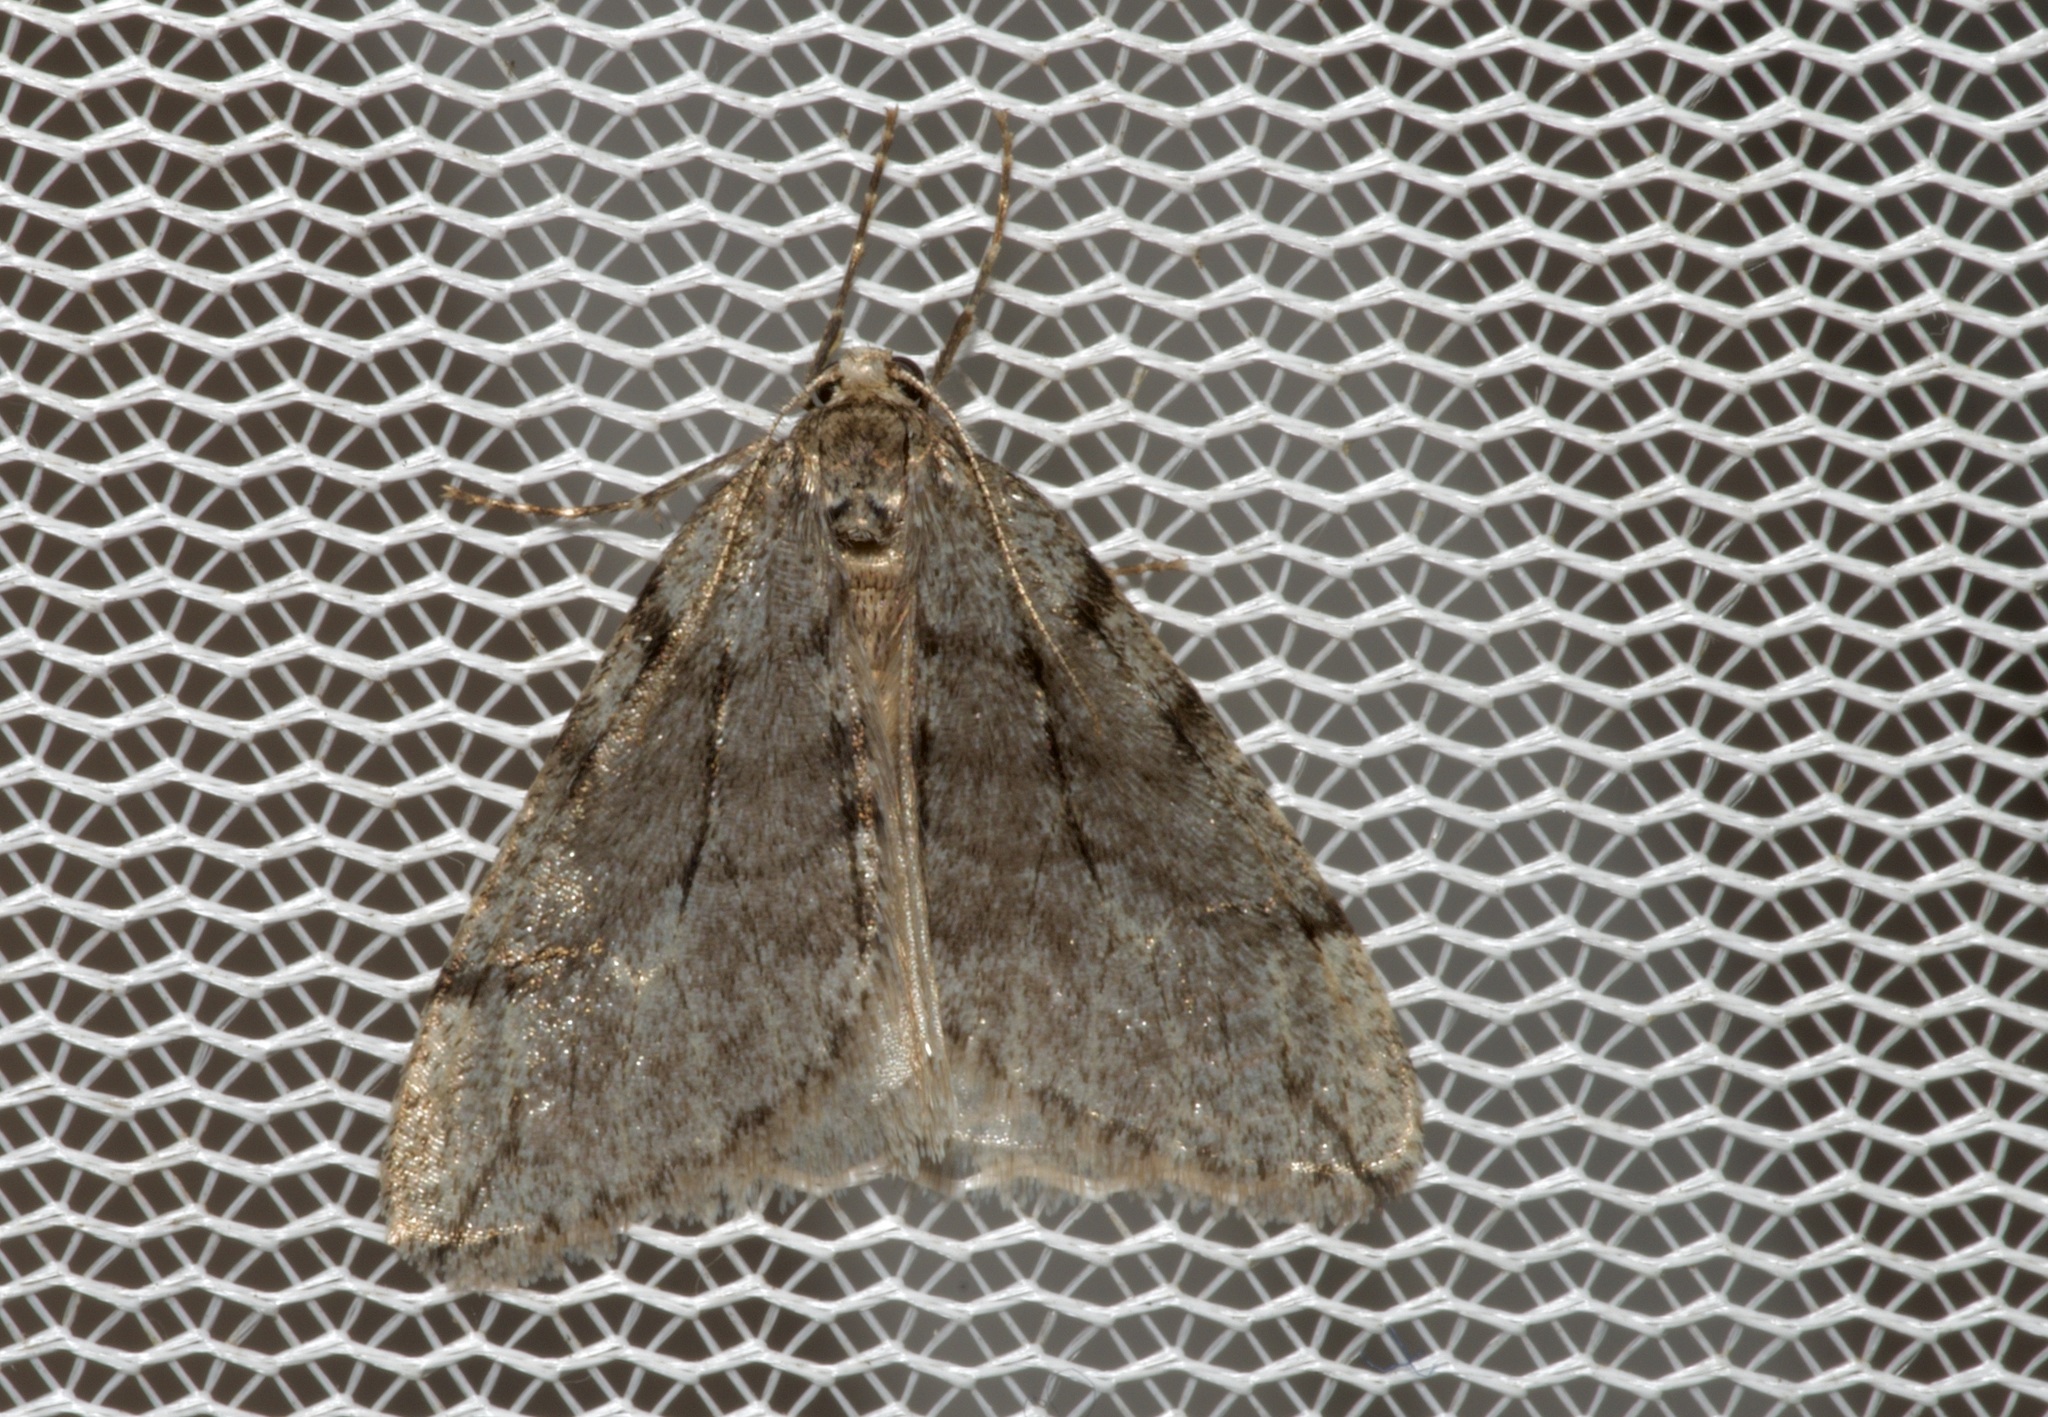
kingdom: Animalia
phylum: Arthropoda
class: Insecta
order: Lepidoptera
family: Geometridae
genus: Paleacrita
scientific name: Paleacrita vernata
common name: Spring cankerworm
